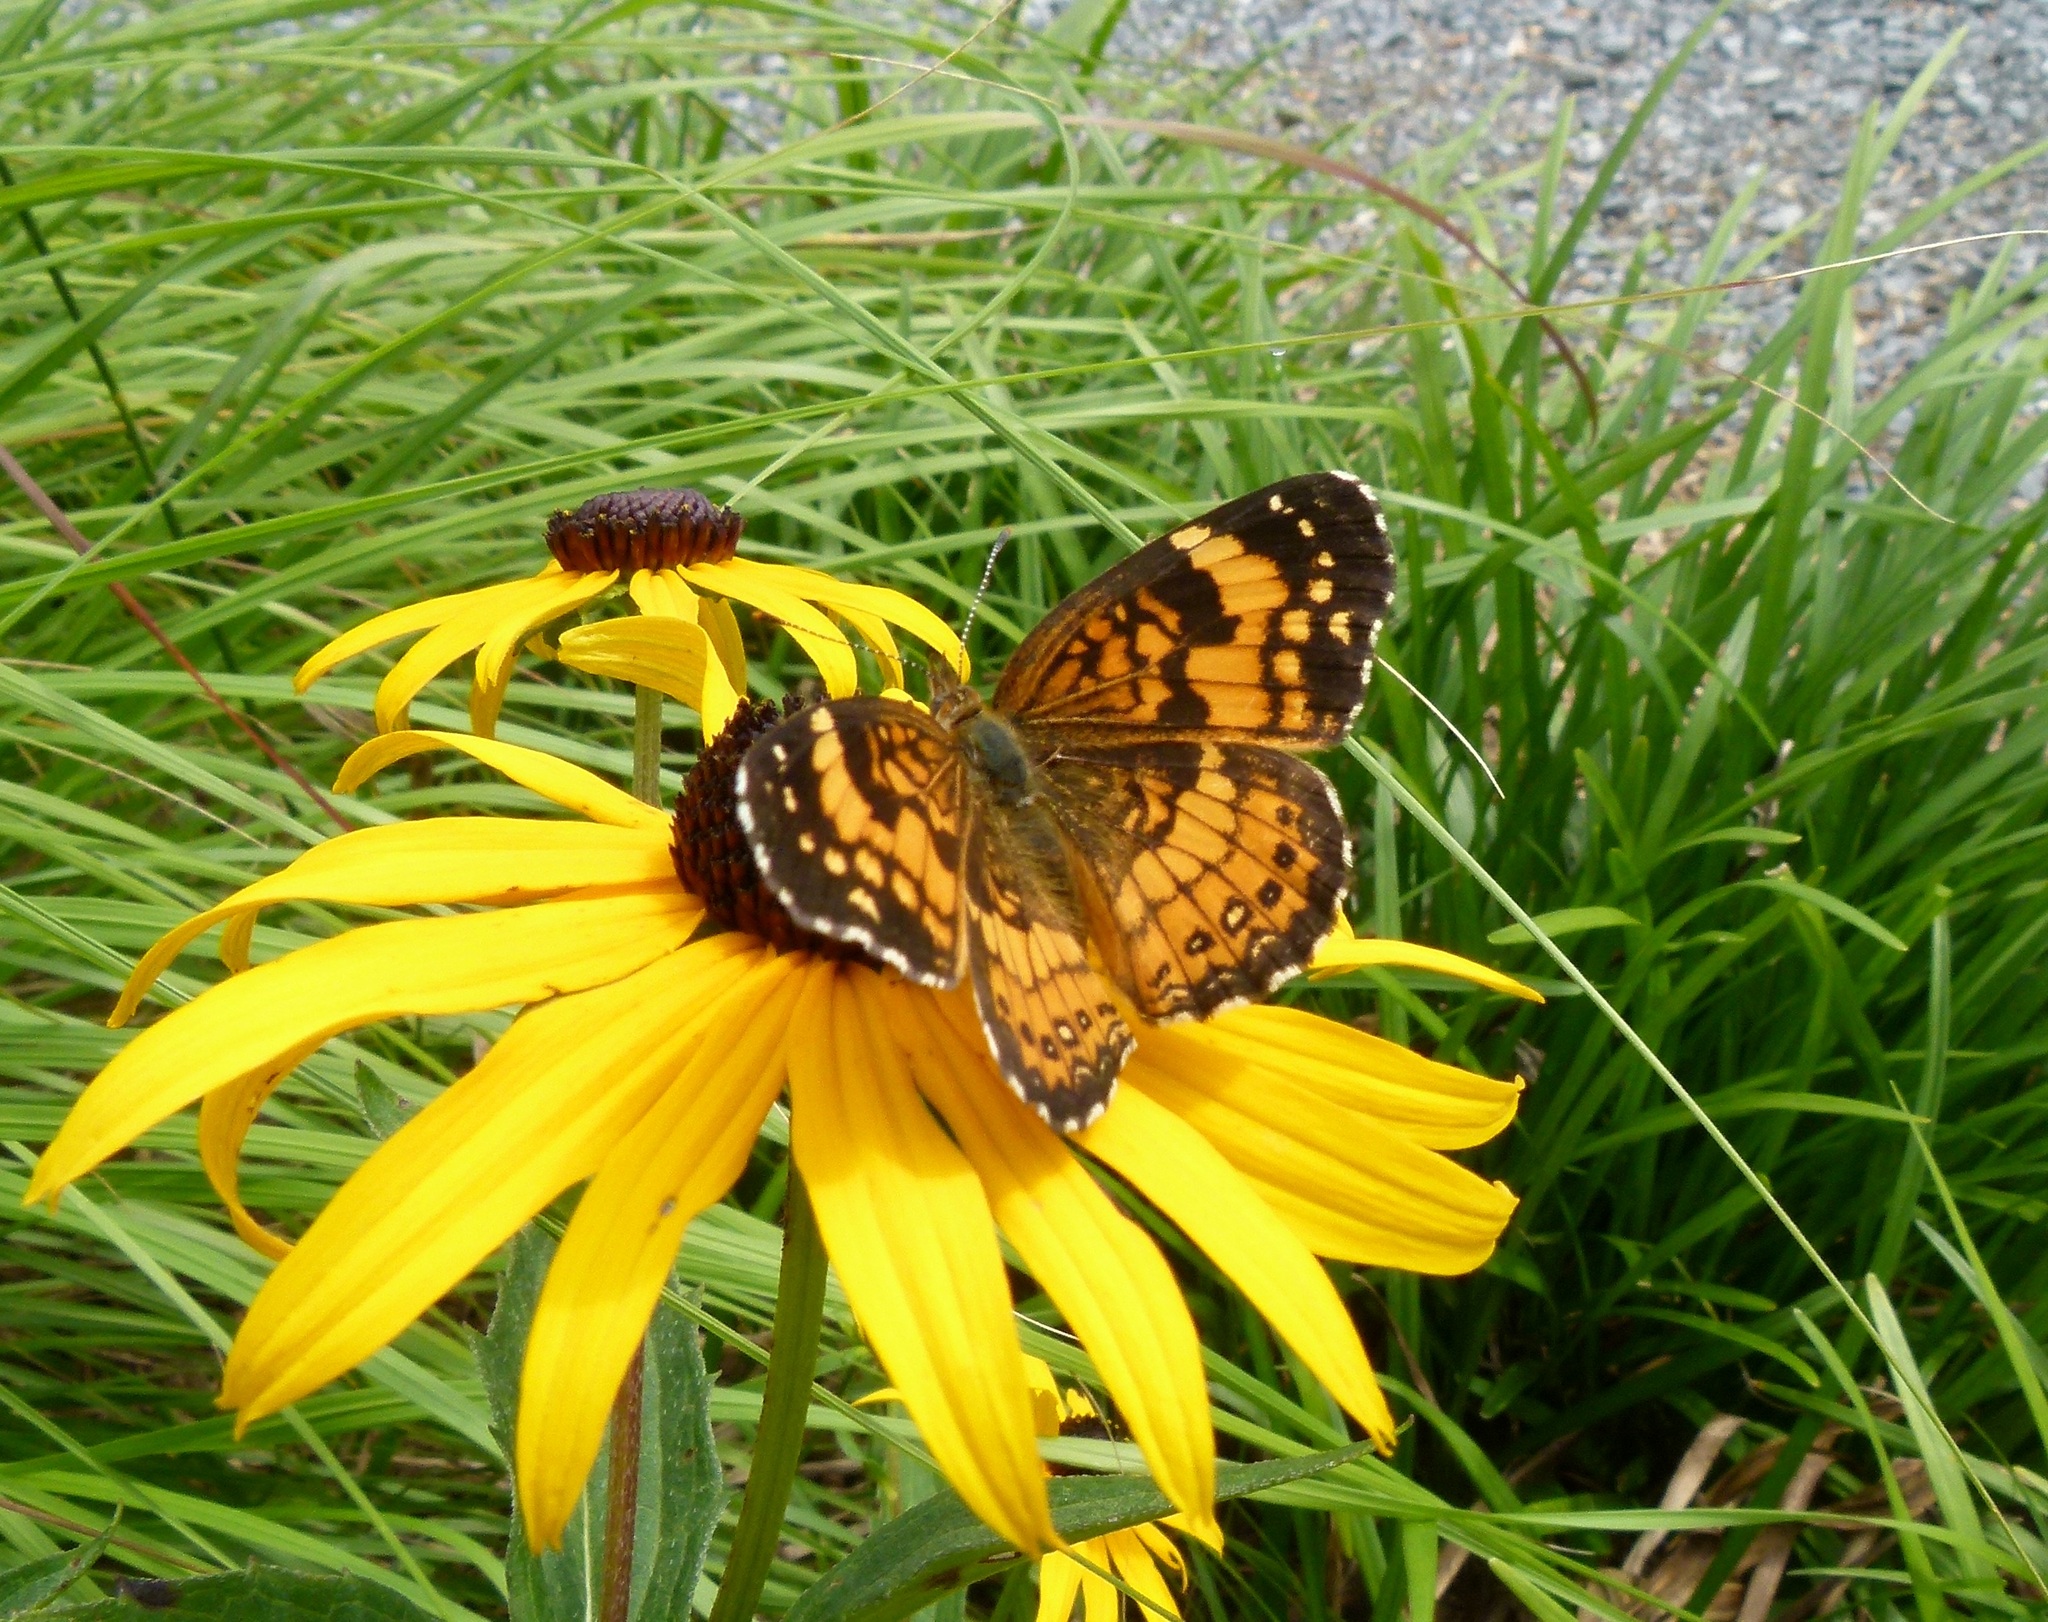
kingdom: Animalia
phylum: Arthropoda
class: Insecta
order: Lepidoptera
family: Nymphalidae
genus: Chlosyne
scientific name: Chlosyne nycteis
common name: Silvery checkerspot
